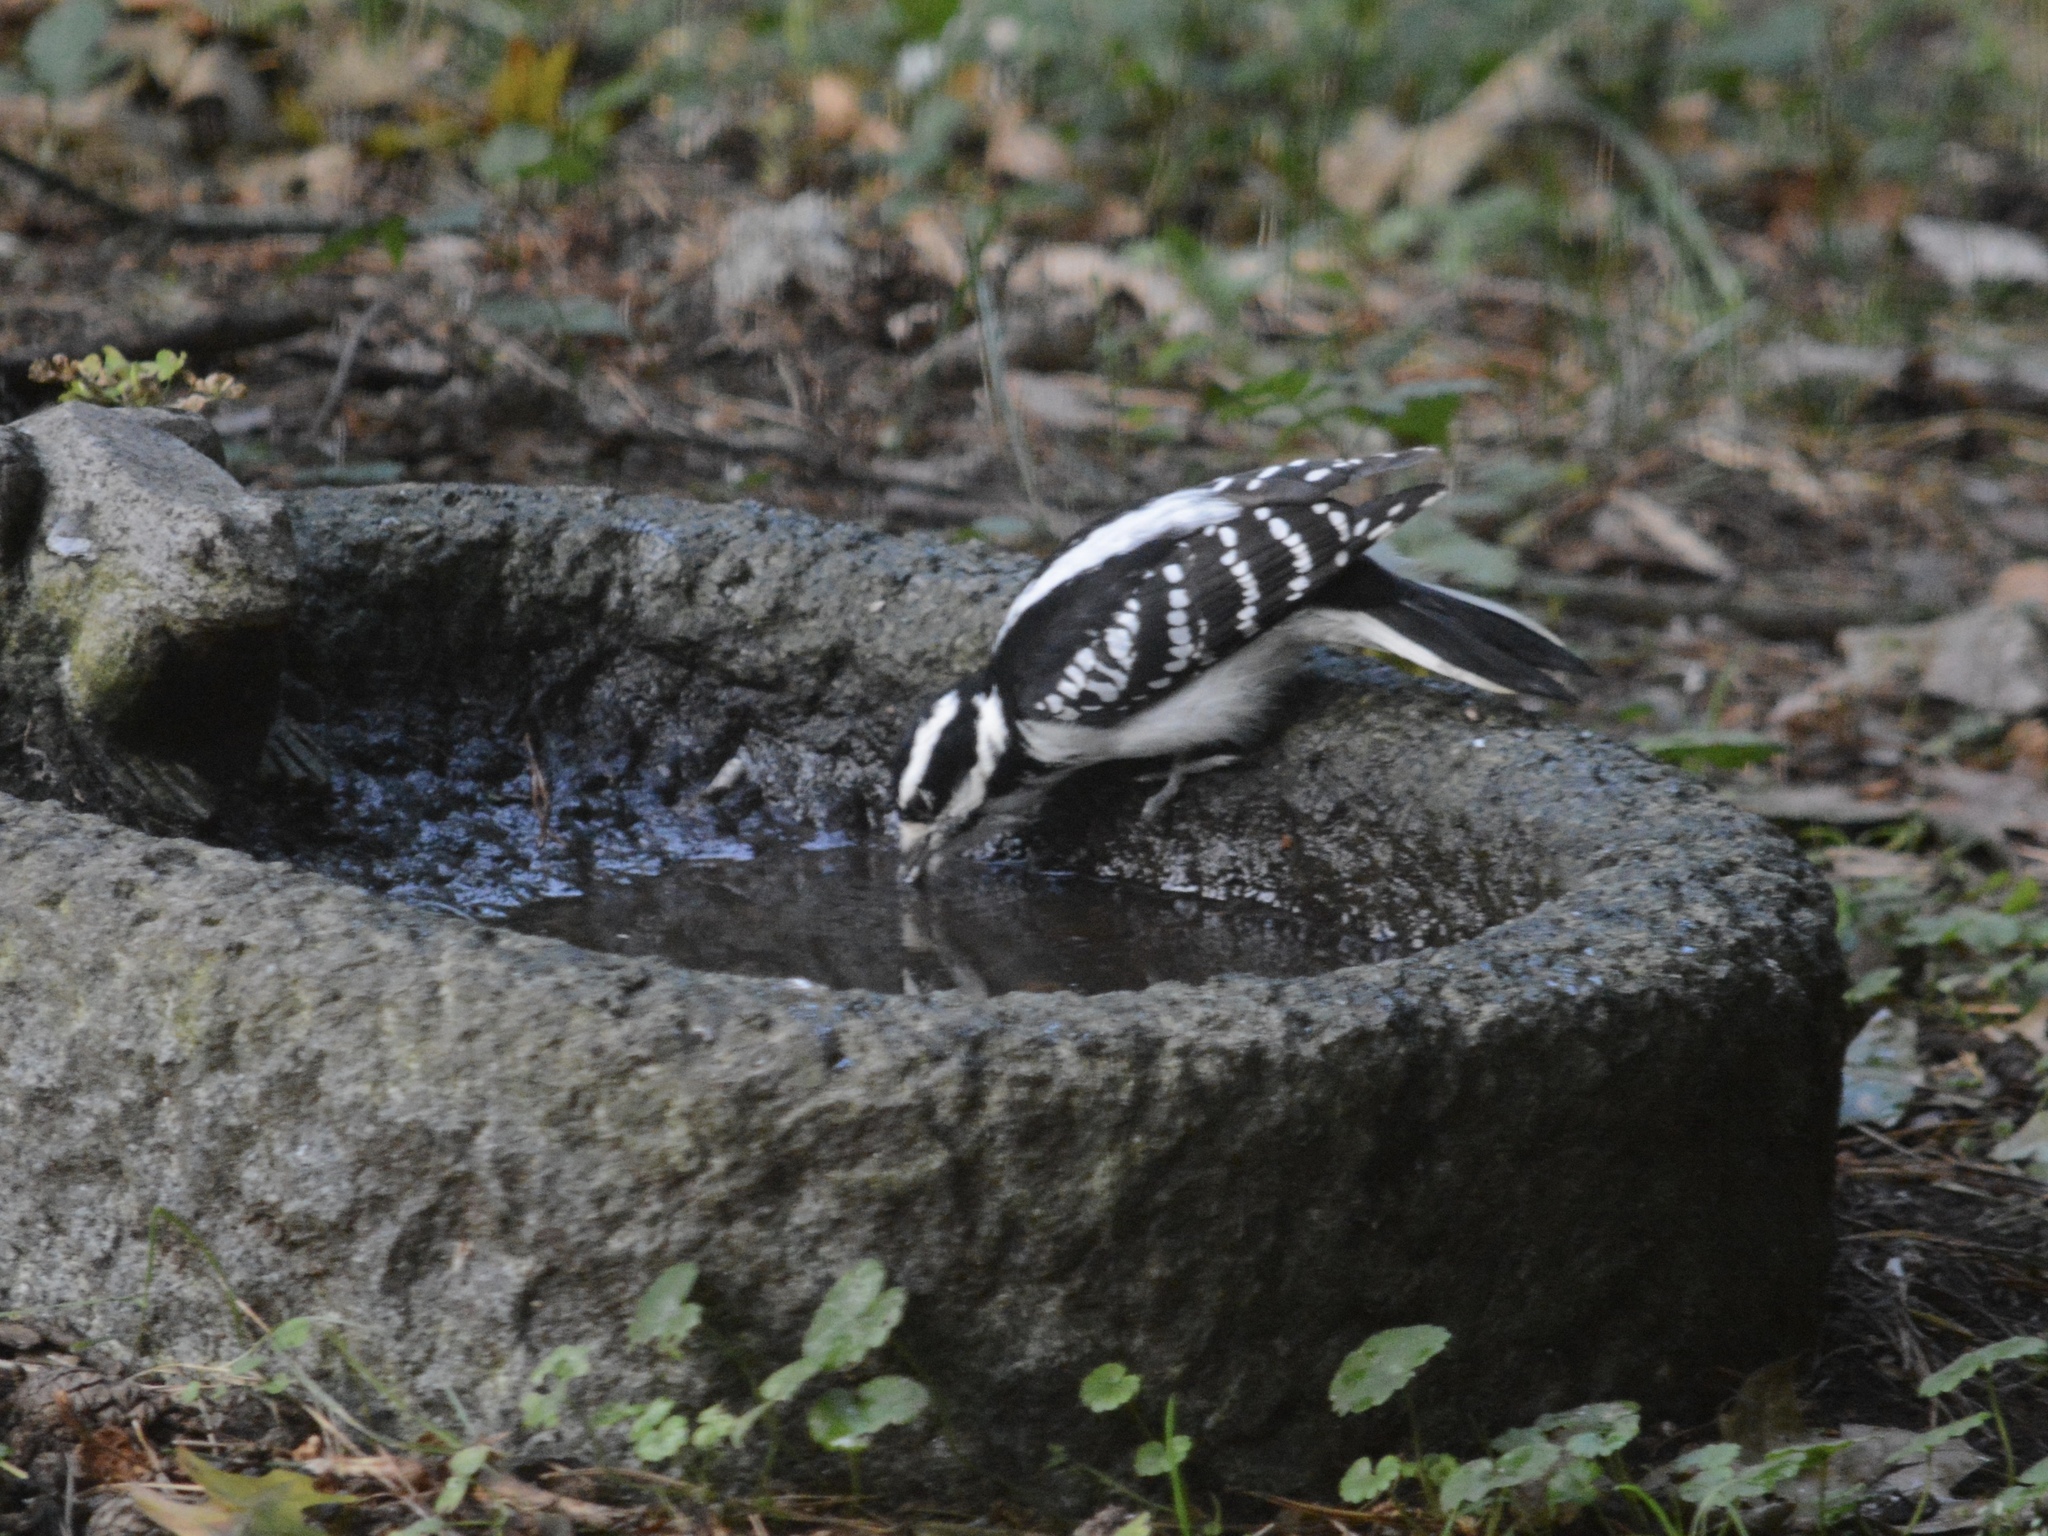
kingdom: Animalia
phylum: Chordata
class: Aves
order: Piciformes
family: Picidae
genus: Leuconotopicus
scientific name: Leuconotopicus villosus
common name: Hairy woodpecker
